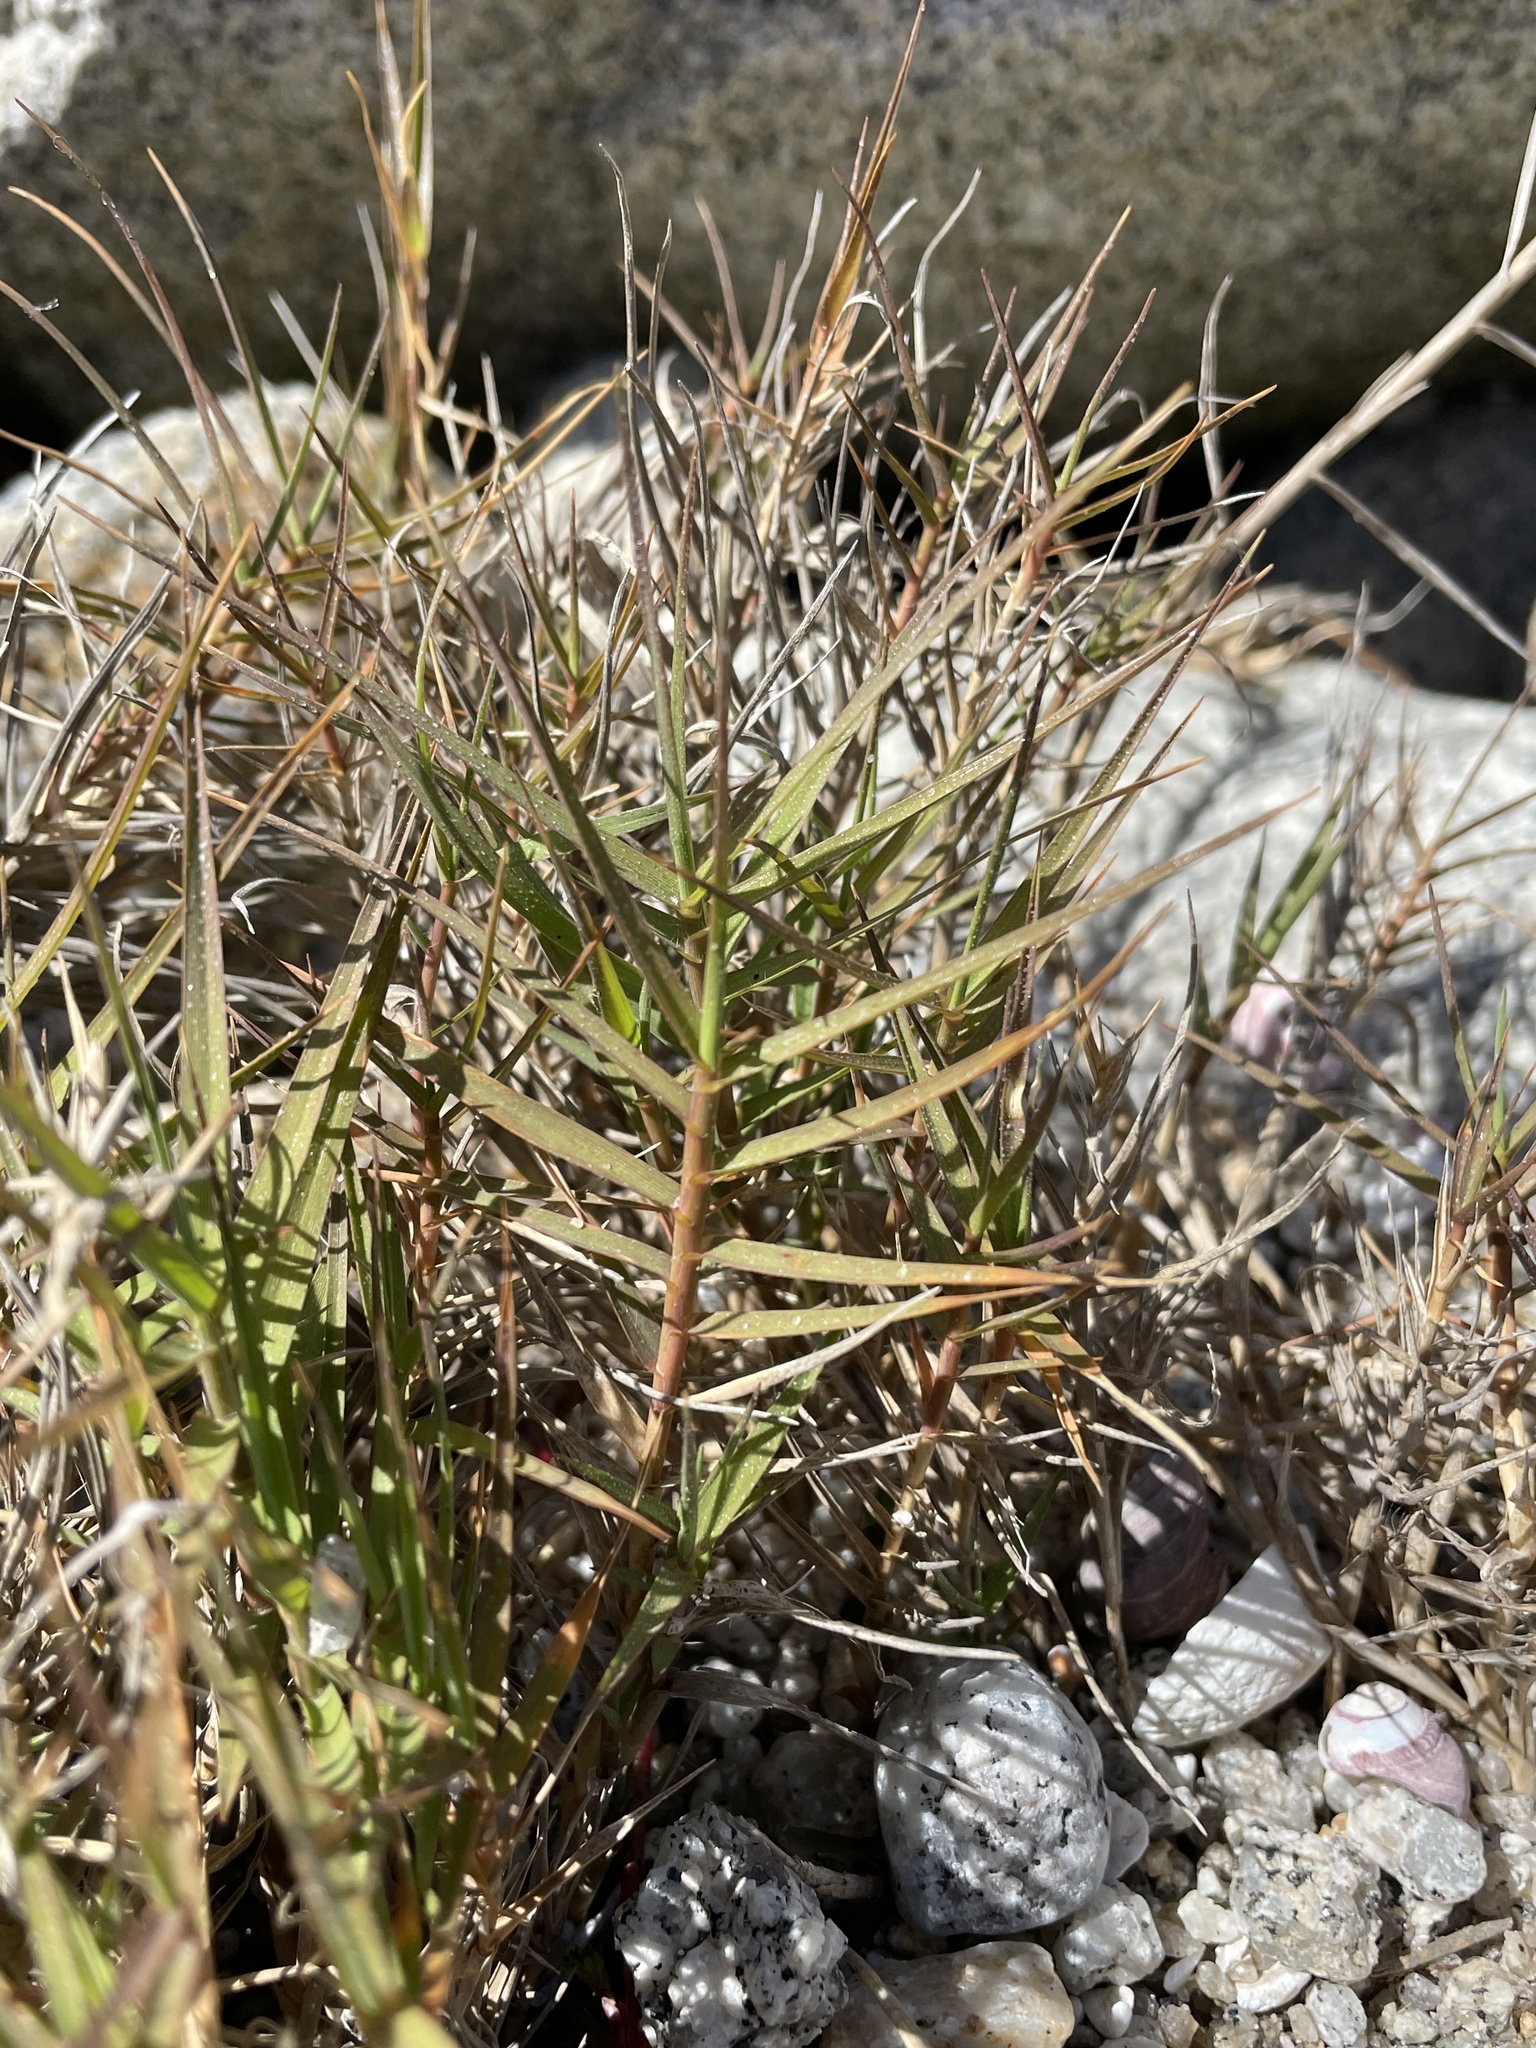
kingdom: Plantae
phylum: Tracheophyta
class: Liliopsida
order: Poales
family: Poaceae
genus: Distichlis
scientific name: Distichlis spicata
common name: Saltgrass
